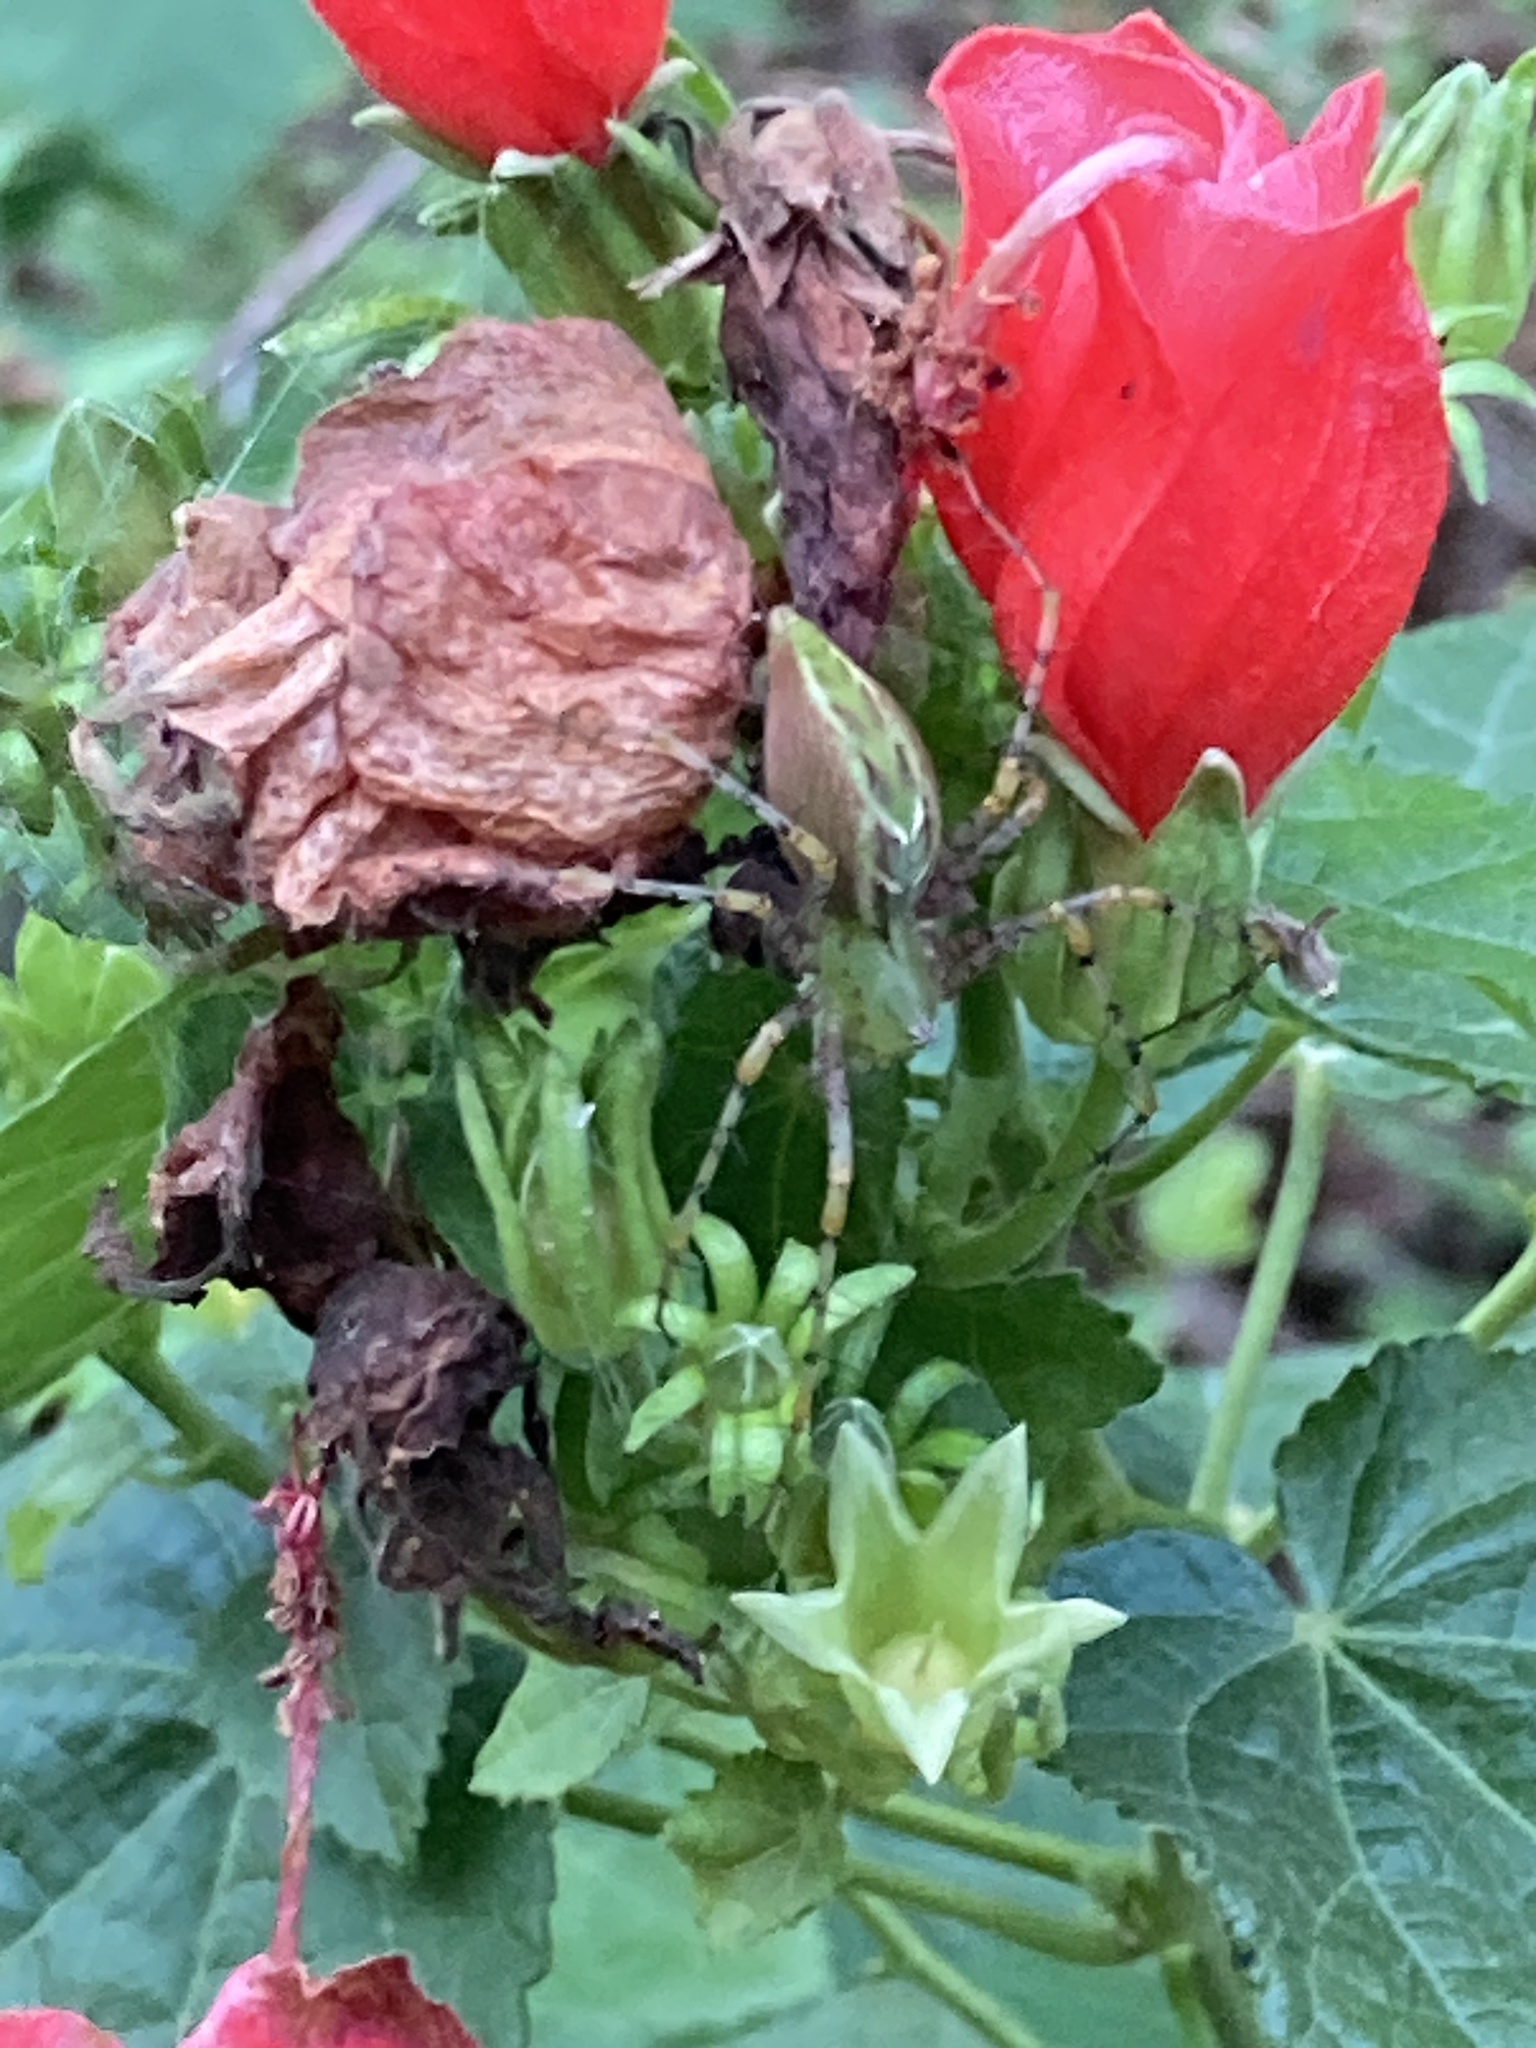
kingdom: Animalia
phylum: Arthropoda
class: Arachnida
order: Araneae
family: Oxyopidae
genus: Peucetia
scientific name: Peucetia viridans
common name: Lynx spiders
